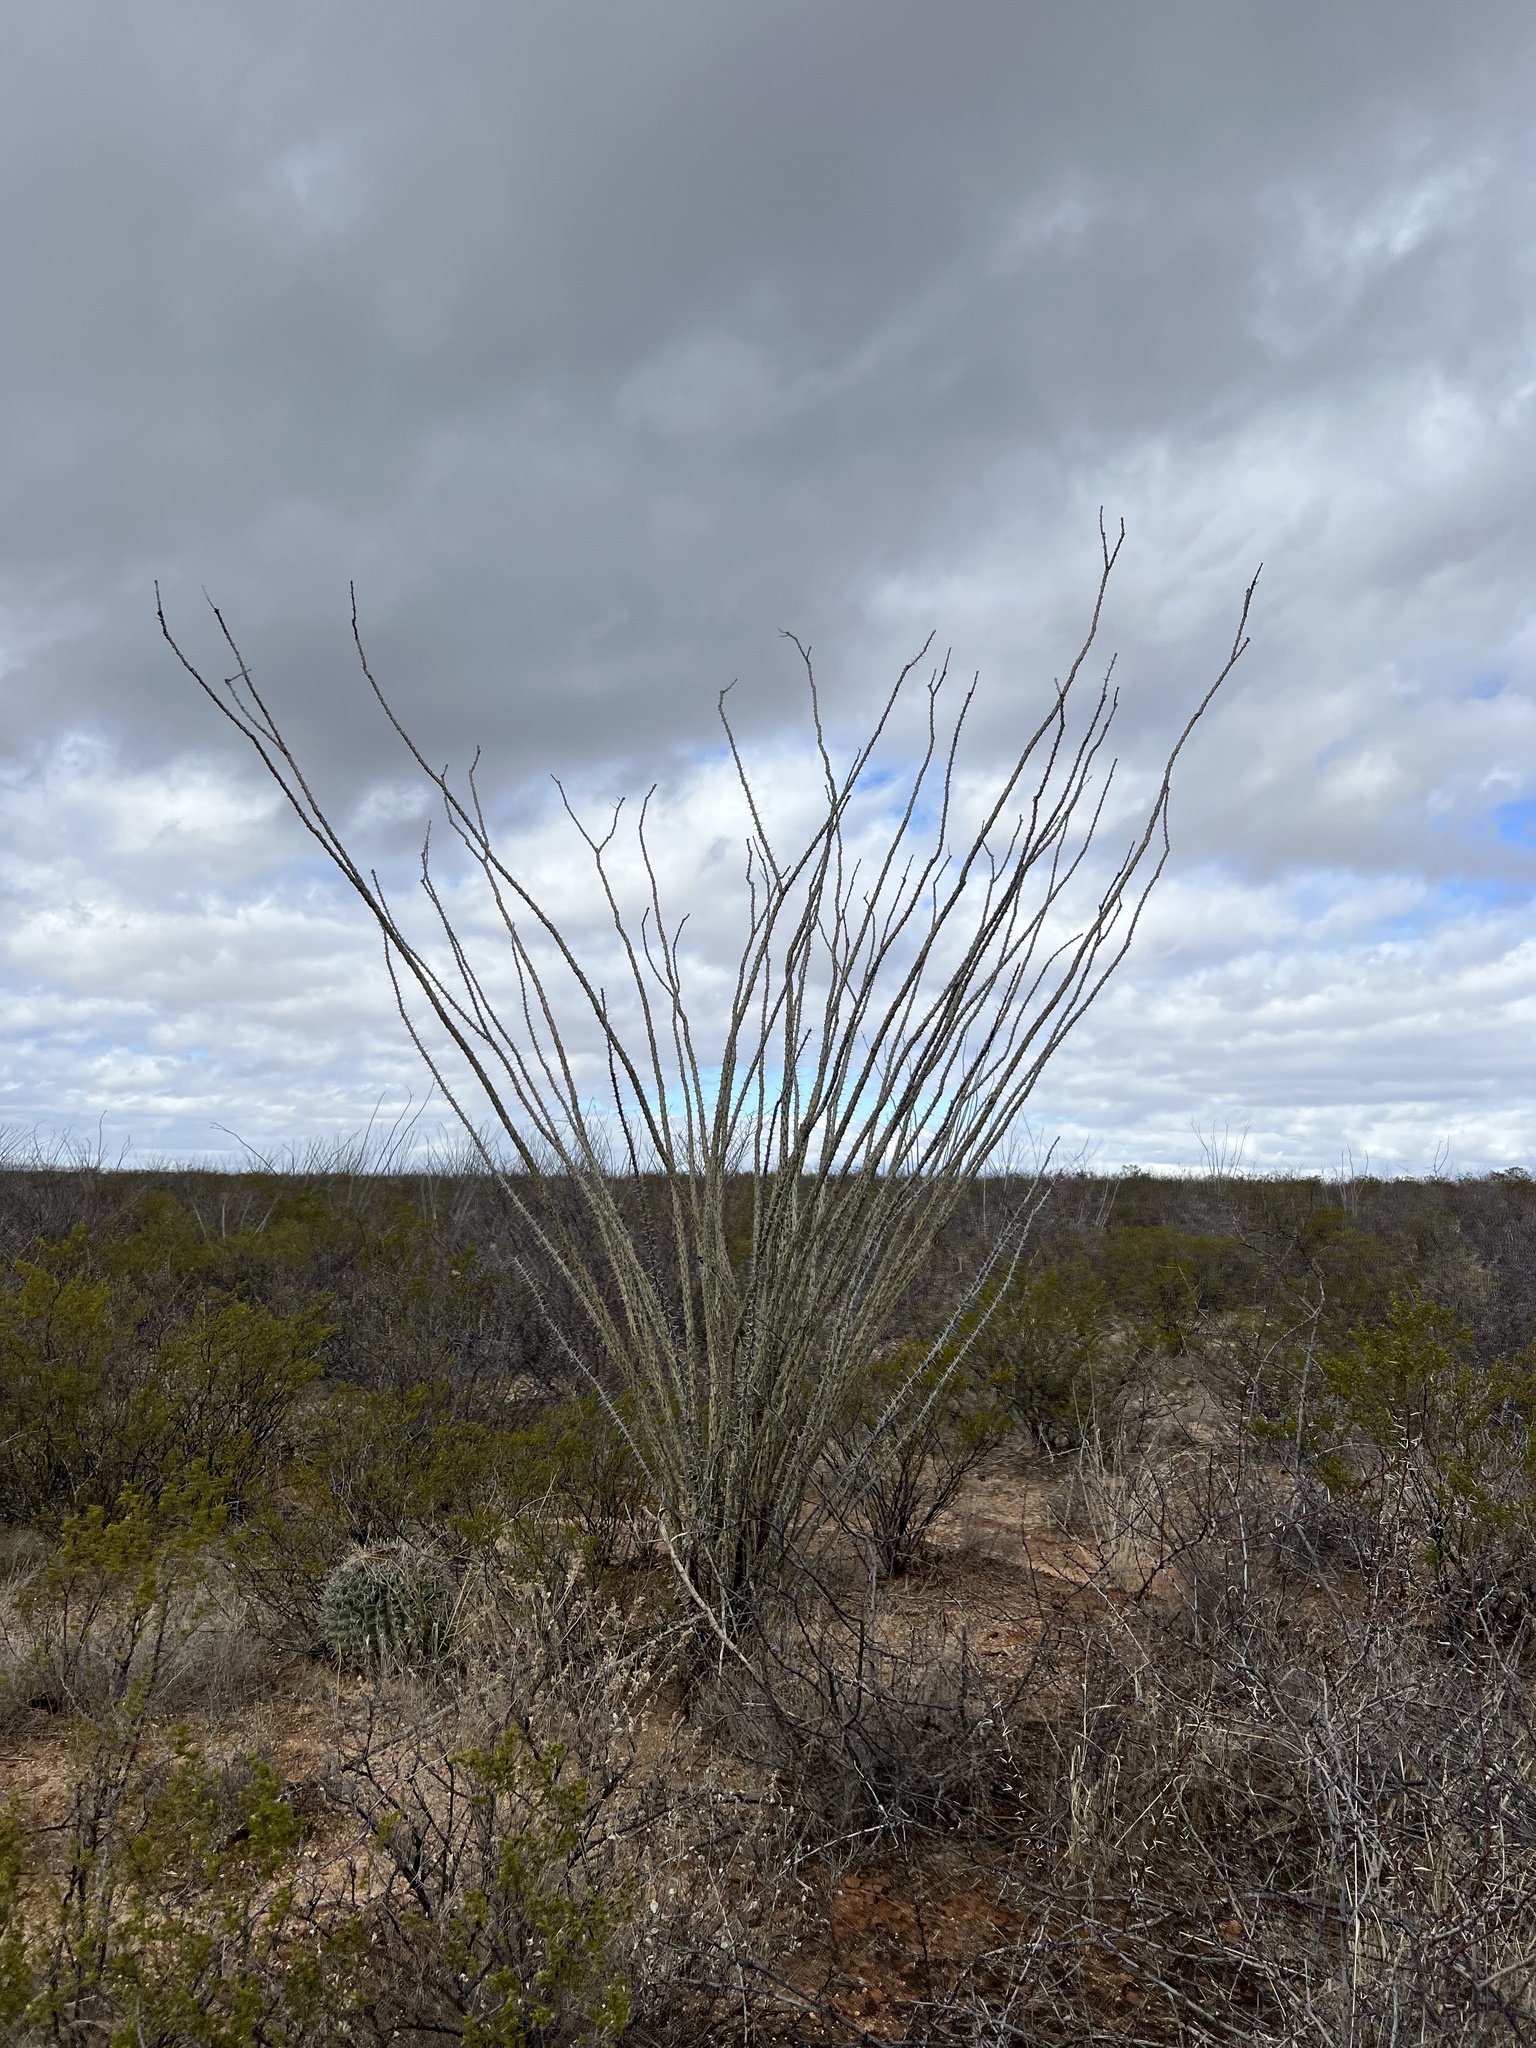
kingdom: Plantae
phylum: Tracheophyta
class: Magnoliopsida
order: Ericales
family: Fouquieriaceae
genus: Fouquieria
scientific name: Fouquieria splendens
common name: Vine-cactus
